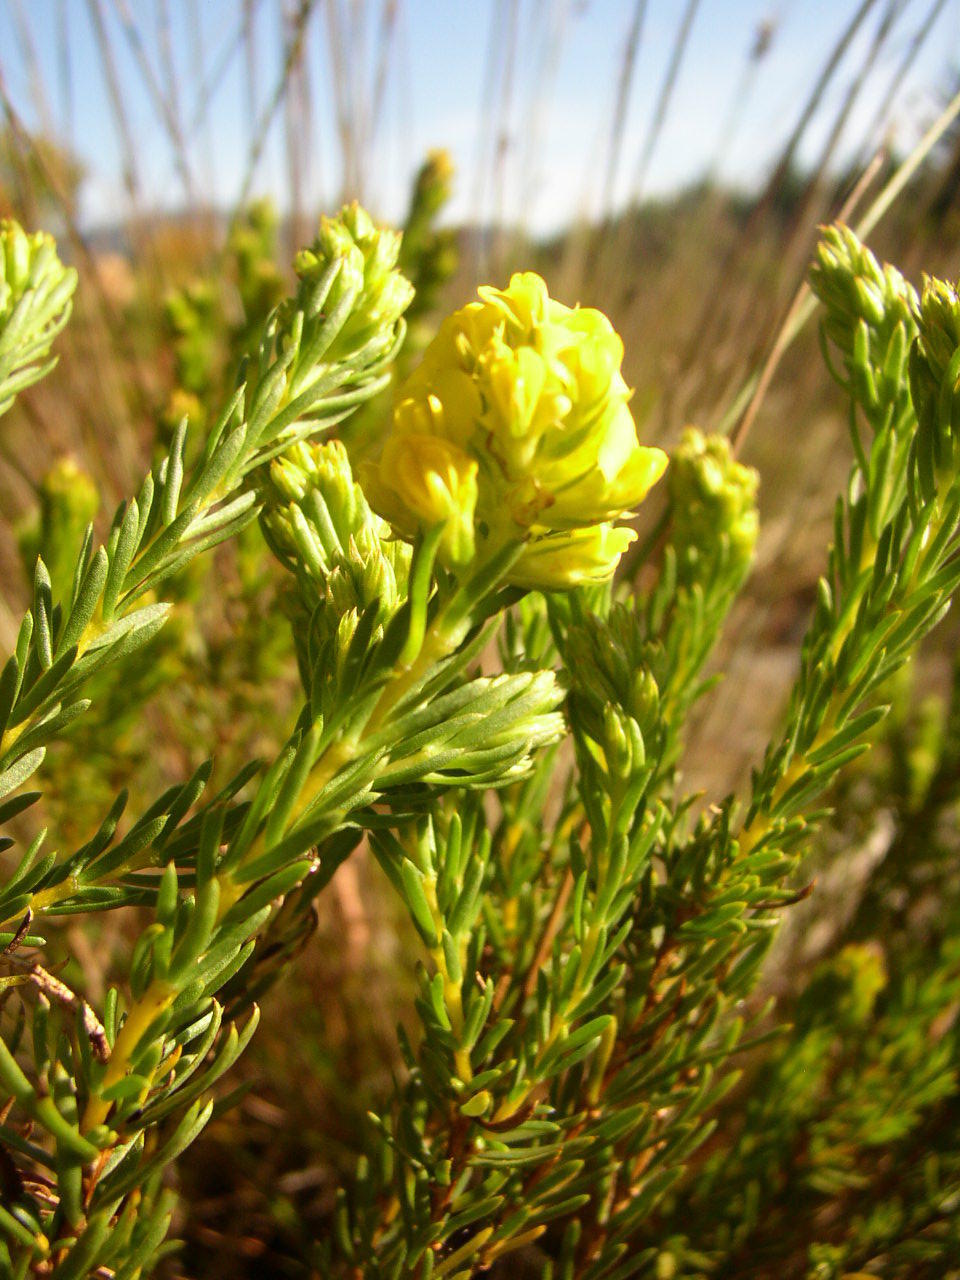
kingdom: Plantae
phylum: Tracheophyta
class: Magnoliopsida
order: Fabales
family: Fabaceae
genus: Aspalathus
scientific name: Aspalathus callosa
